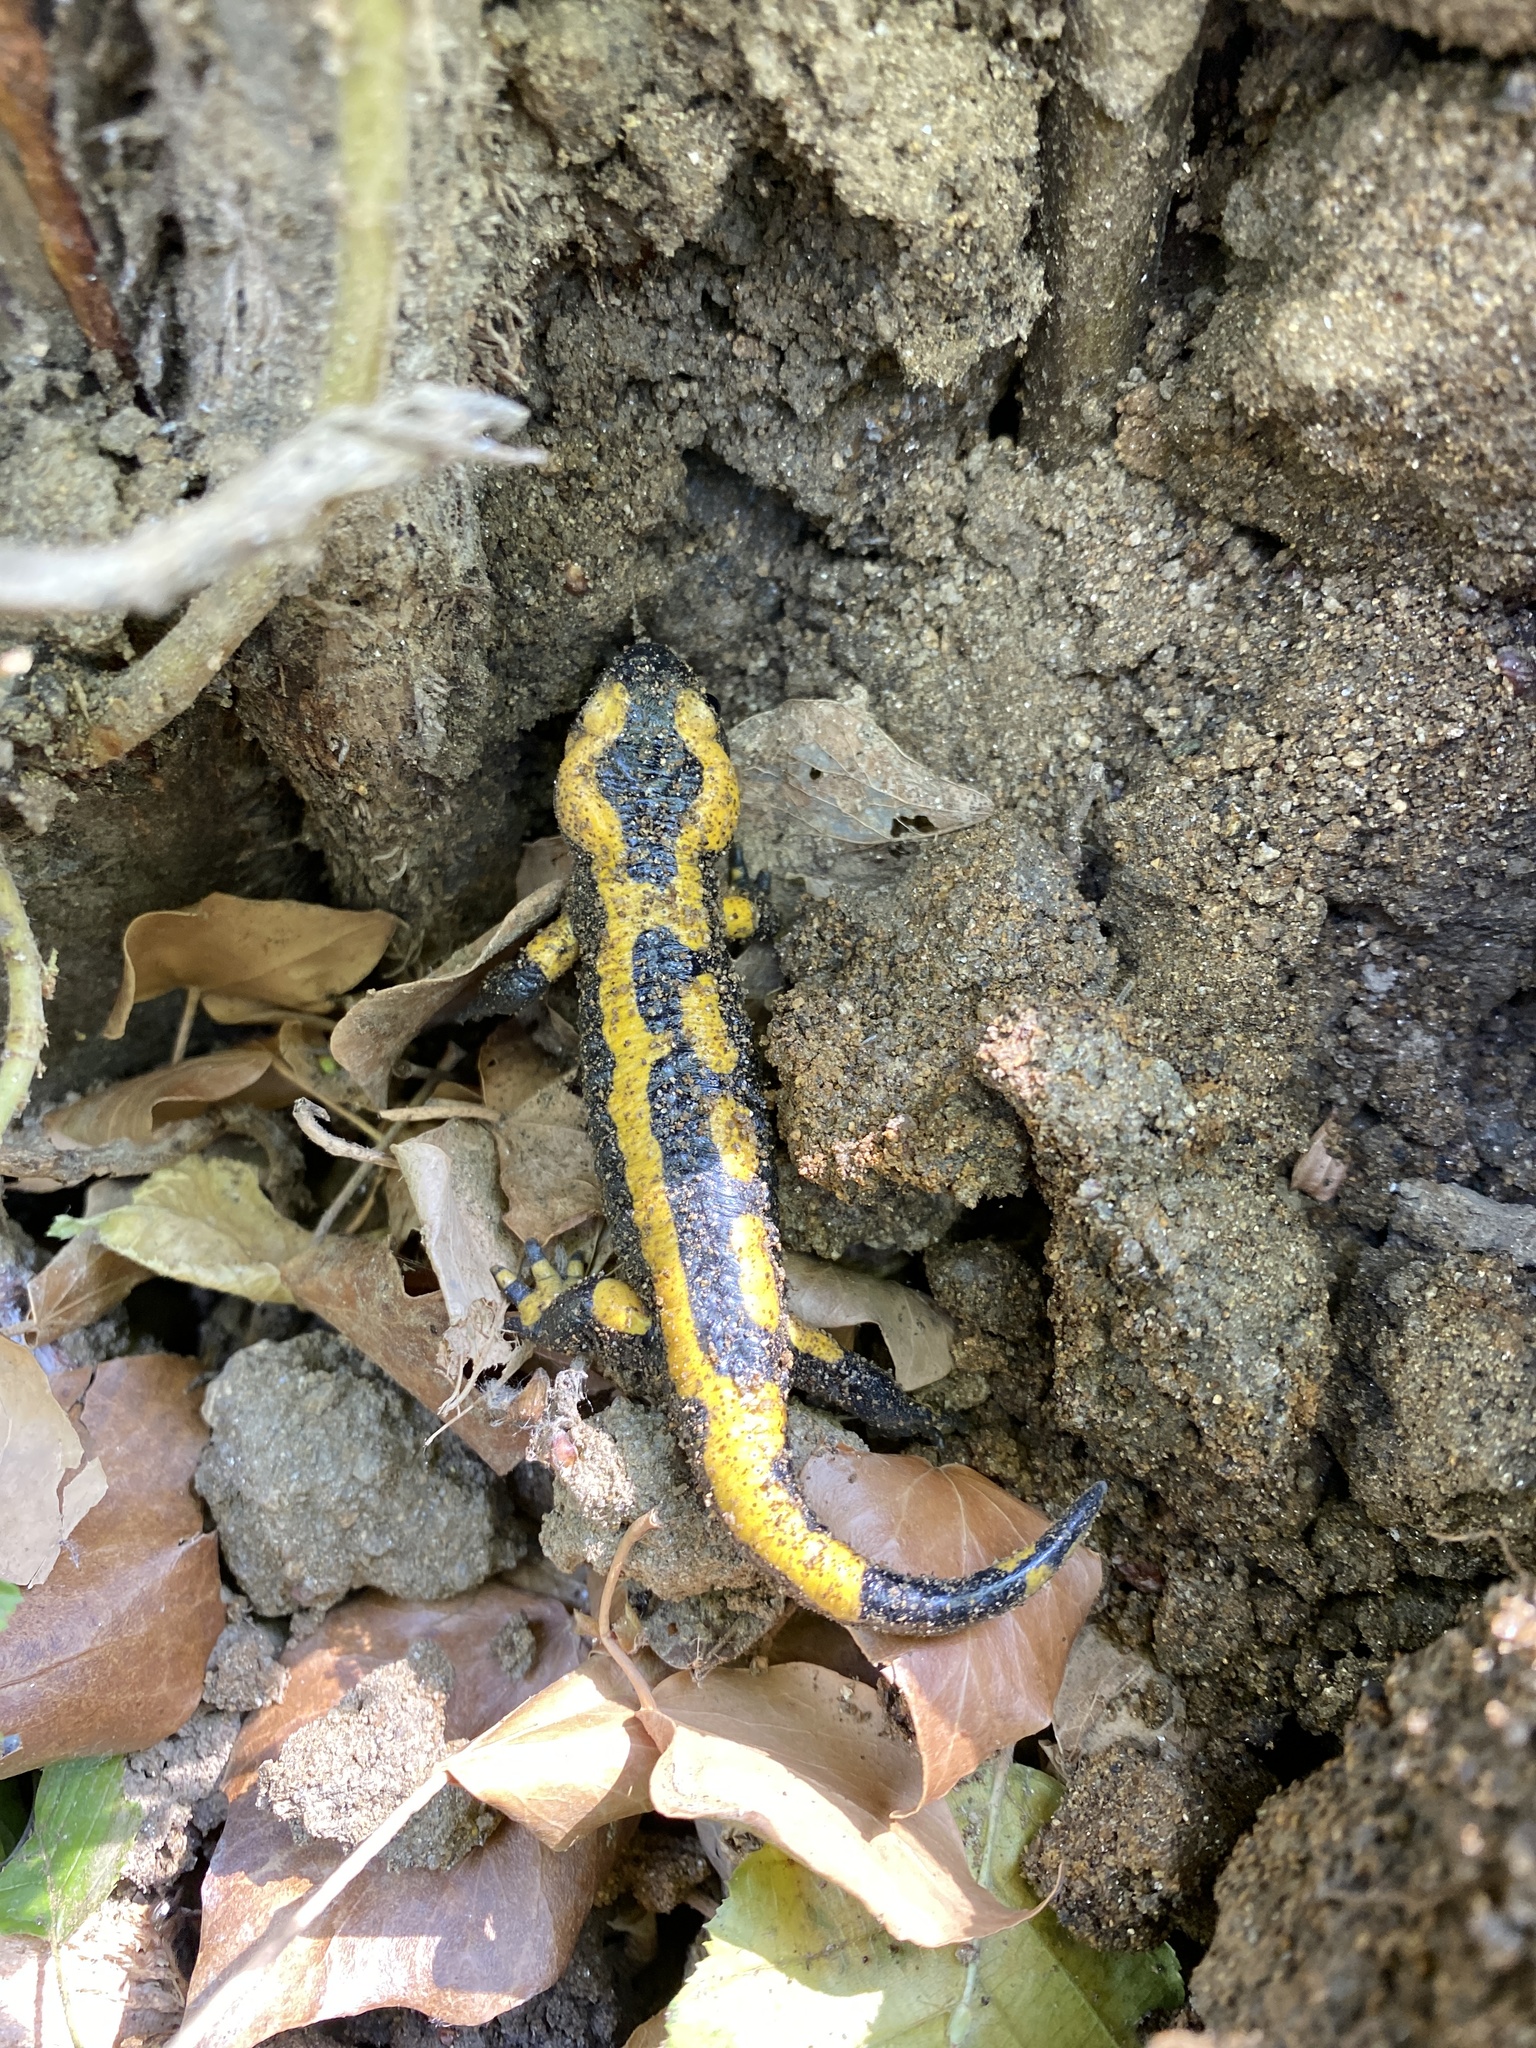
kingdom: Animalia
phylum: Chordata
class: Amphibia
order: Caudata
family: Salamandridae
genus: Salamandra
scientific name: Salamandra salamandra
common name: Fire salamander
